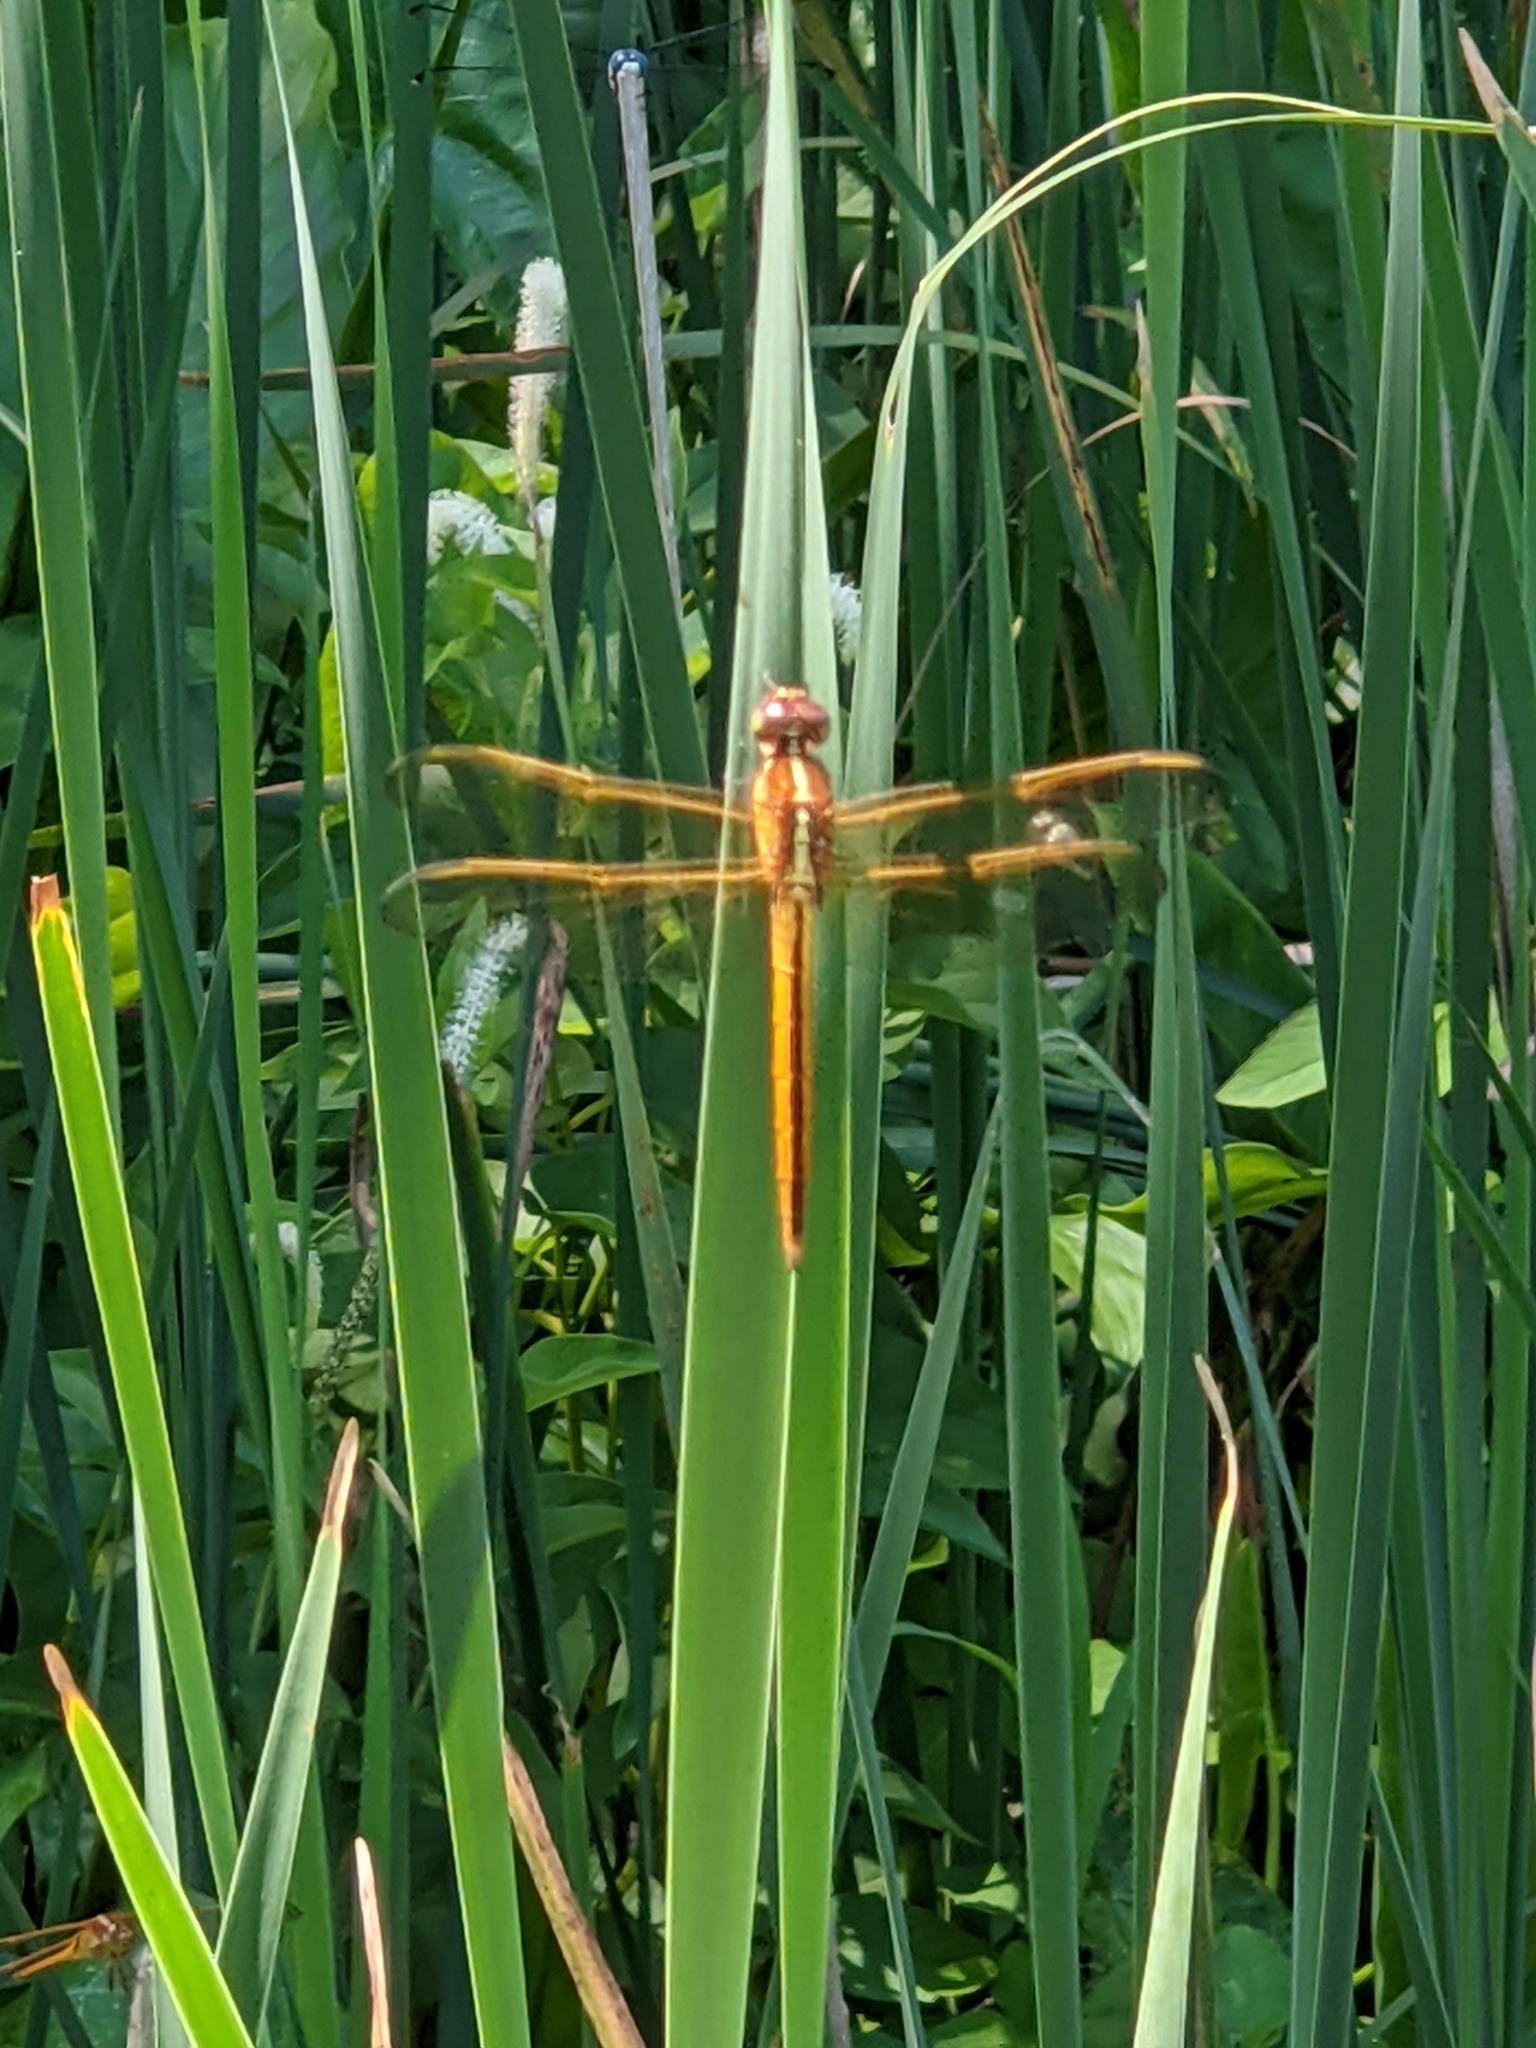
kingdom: Animalia
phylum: Arthropoda
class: Insecta
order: Odonata
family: Libellulidae
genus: Libellula
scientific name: Libellula needhami
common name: Needham's skimmer
